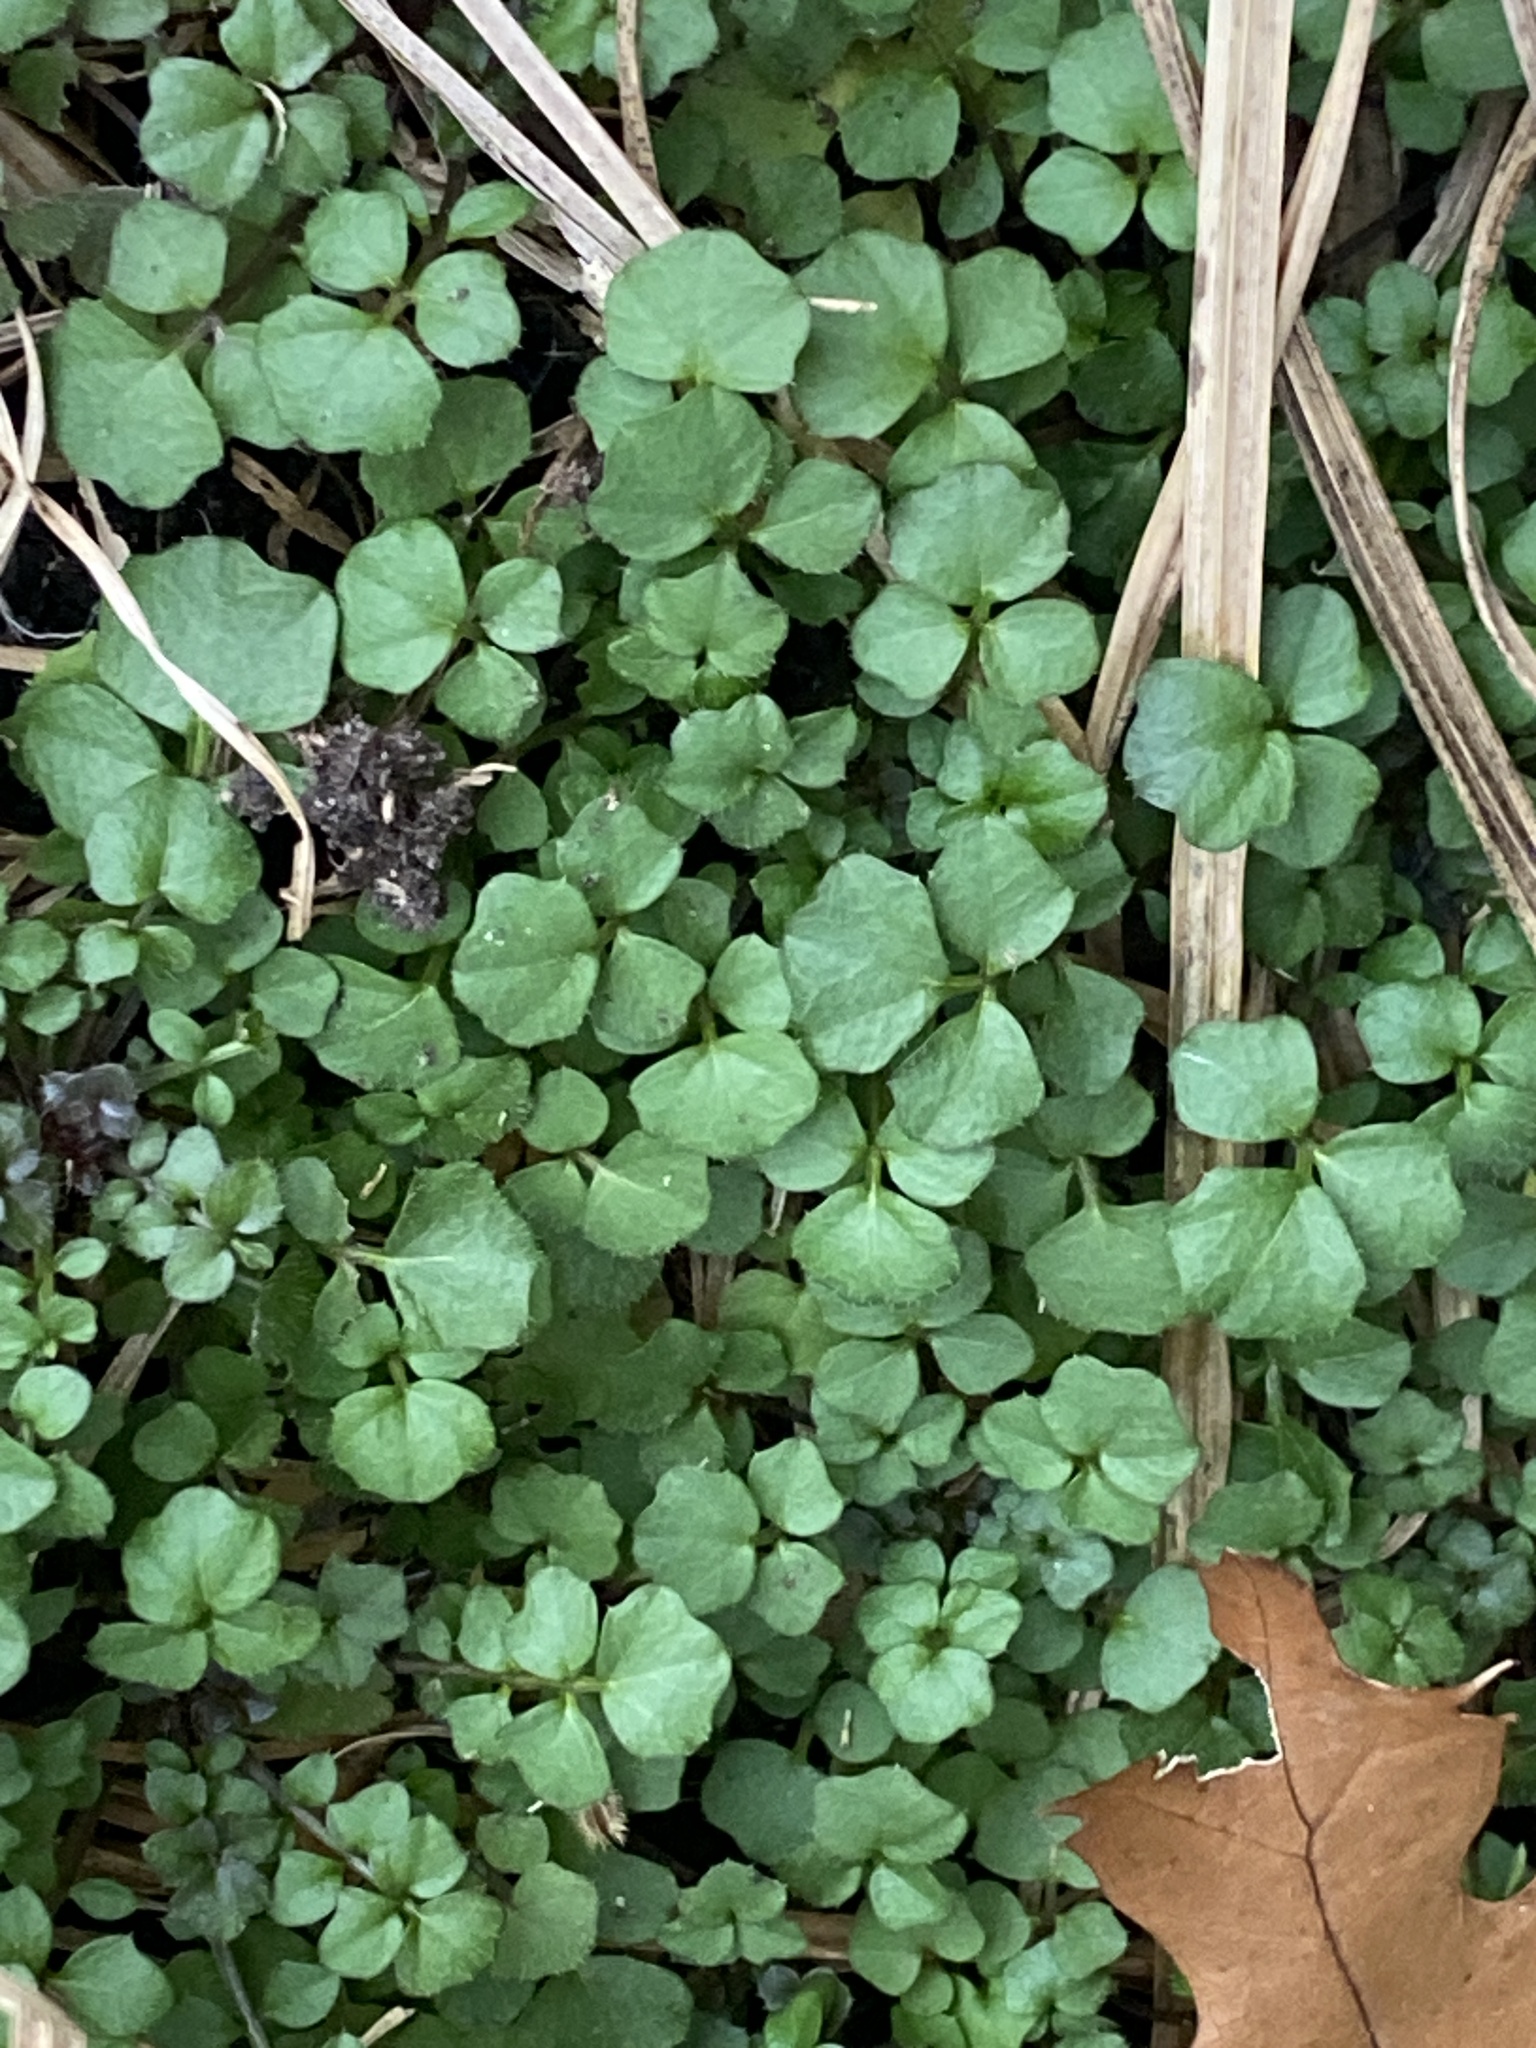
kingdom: Plantae
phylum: Tracheophyta
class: Magnoliopsida
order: Brassicales
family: Brassicaceae
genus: Cardamine
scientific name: Cardamine hirsuta
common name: Hairy bittercress
